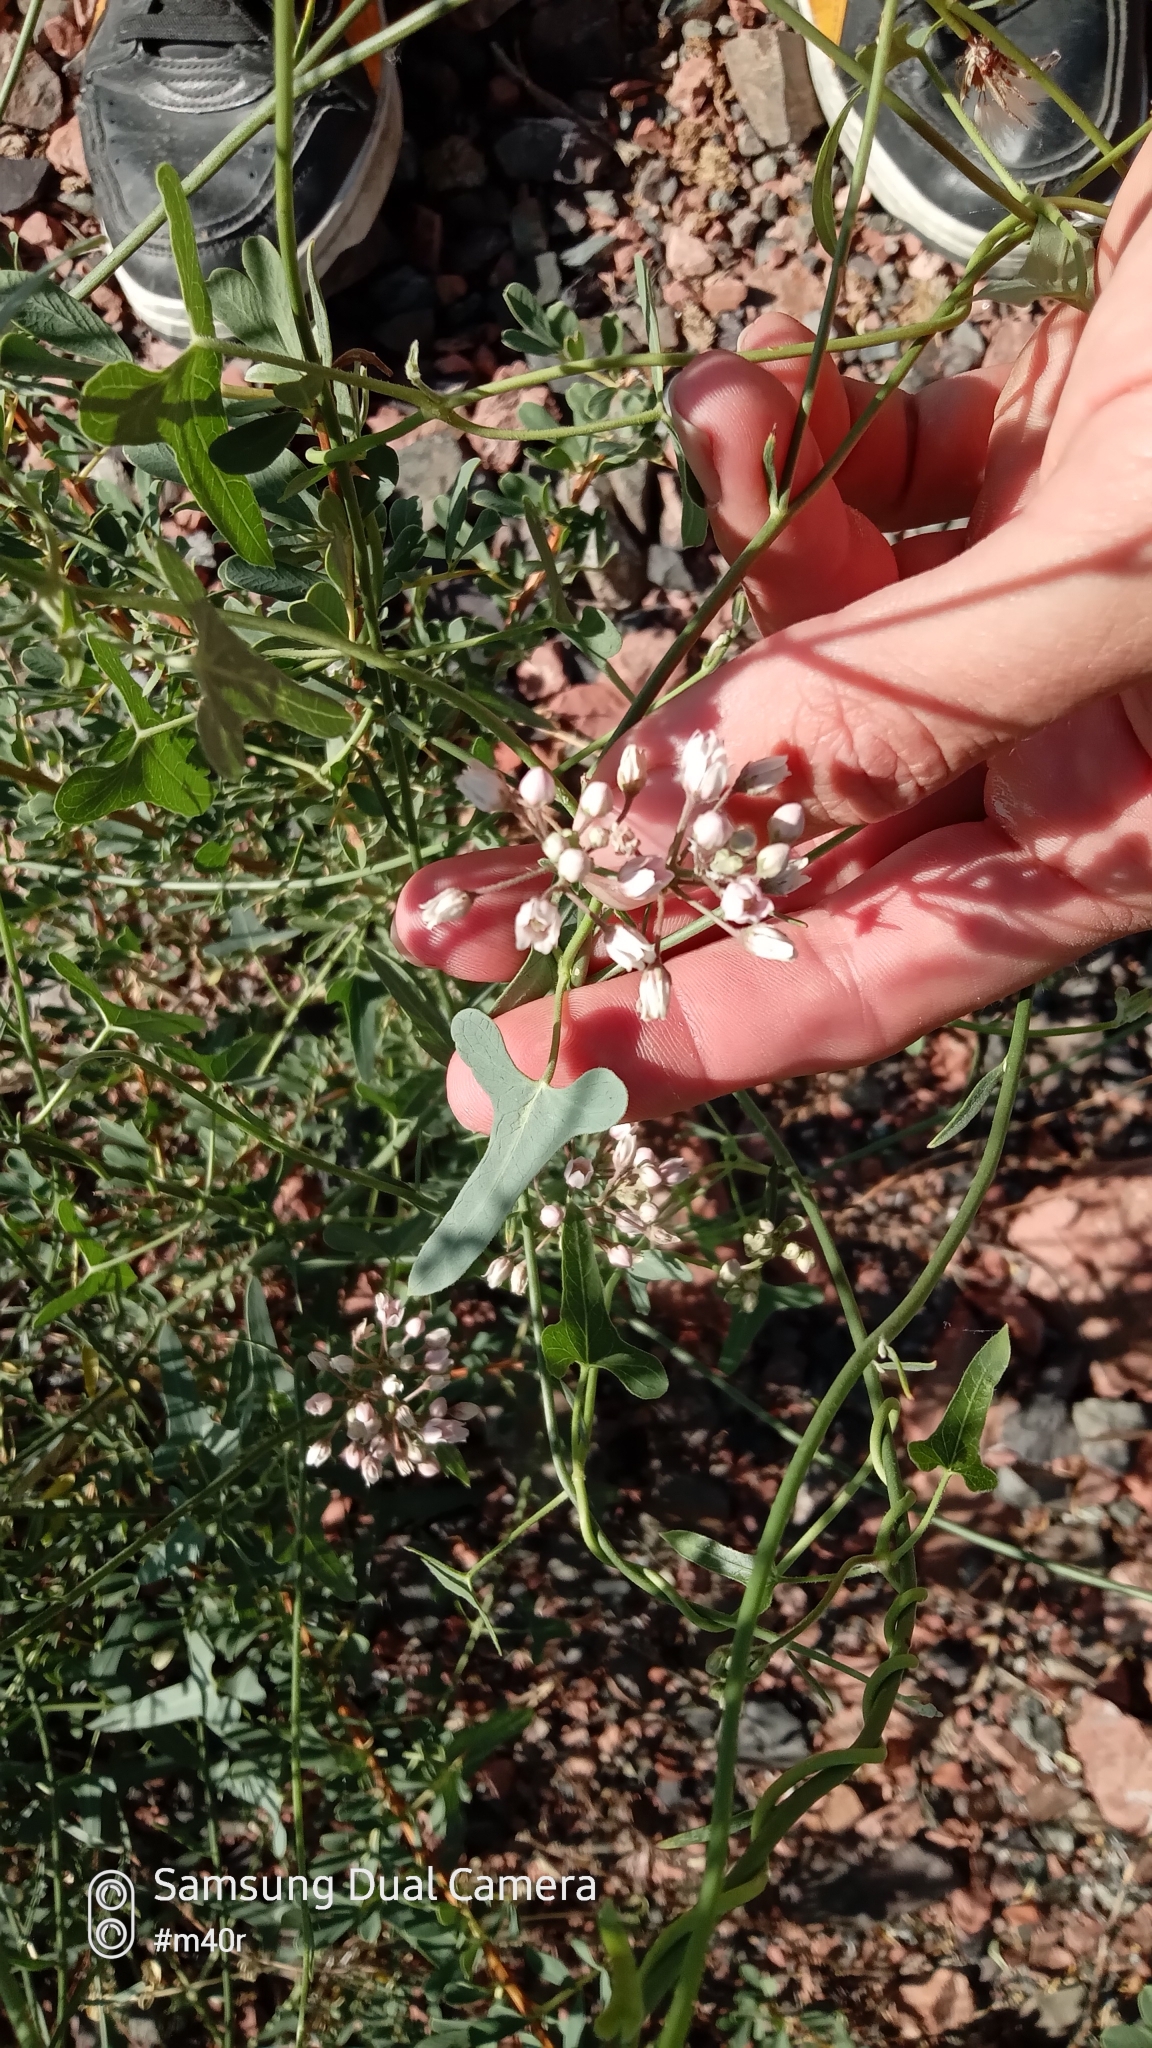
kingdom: Plantae
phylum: Tracheophyta
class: Magnoliopsida
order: Gentianales
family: Apocynaceae
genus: Cynanchum
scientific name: Cynanchum acutum
